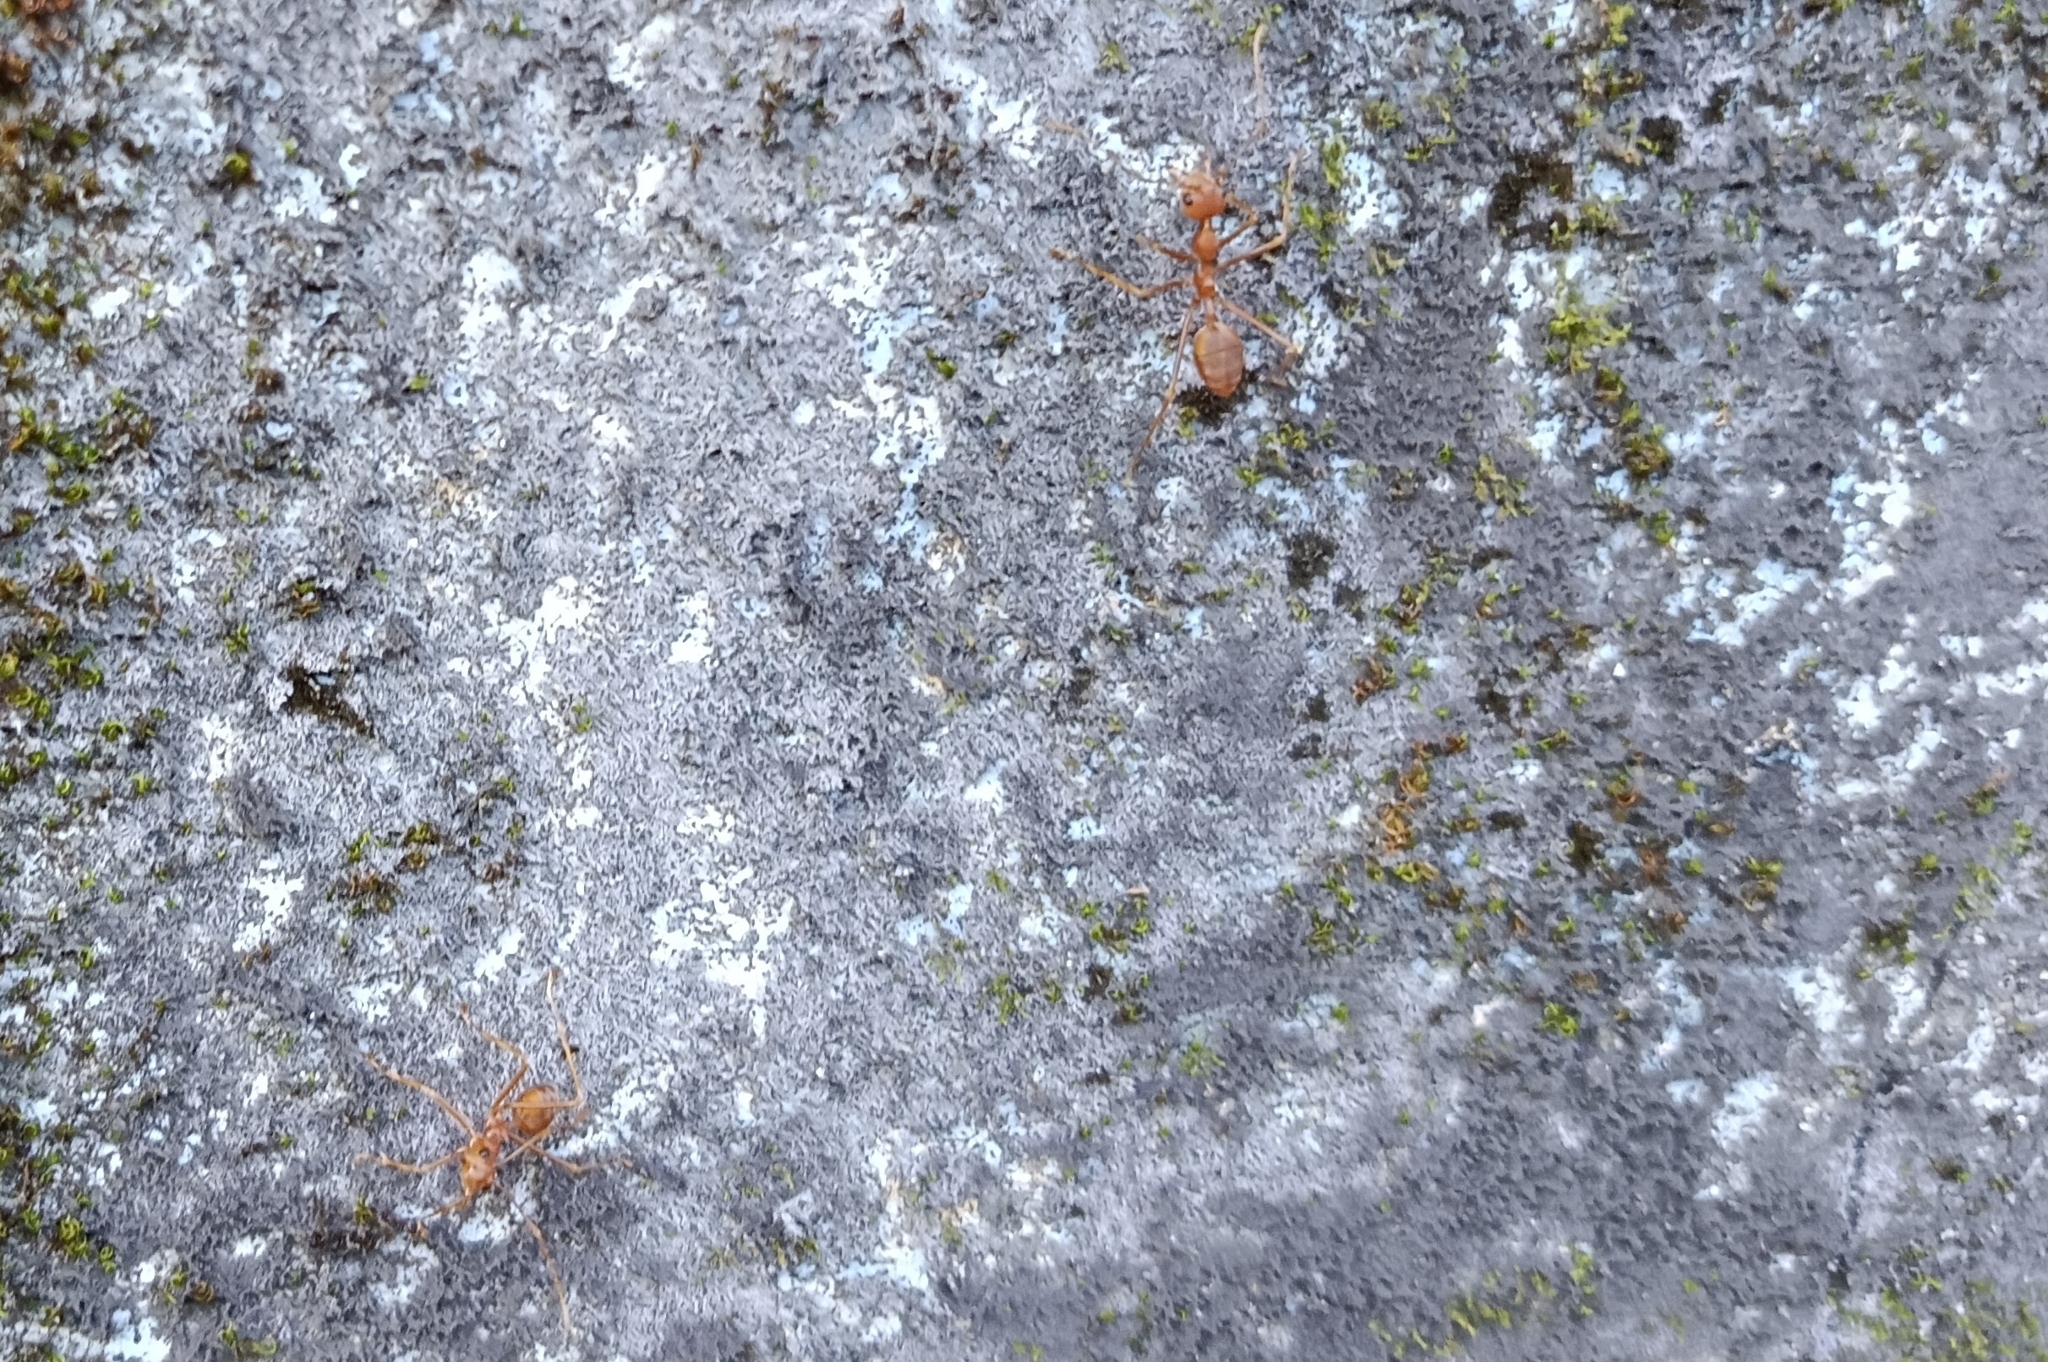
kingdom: Animalia
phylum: Arthropoda
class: Insecta
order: Hymenoptera
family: Formicidae
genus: Oecophylla
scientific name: Oecophylla smaragdina
